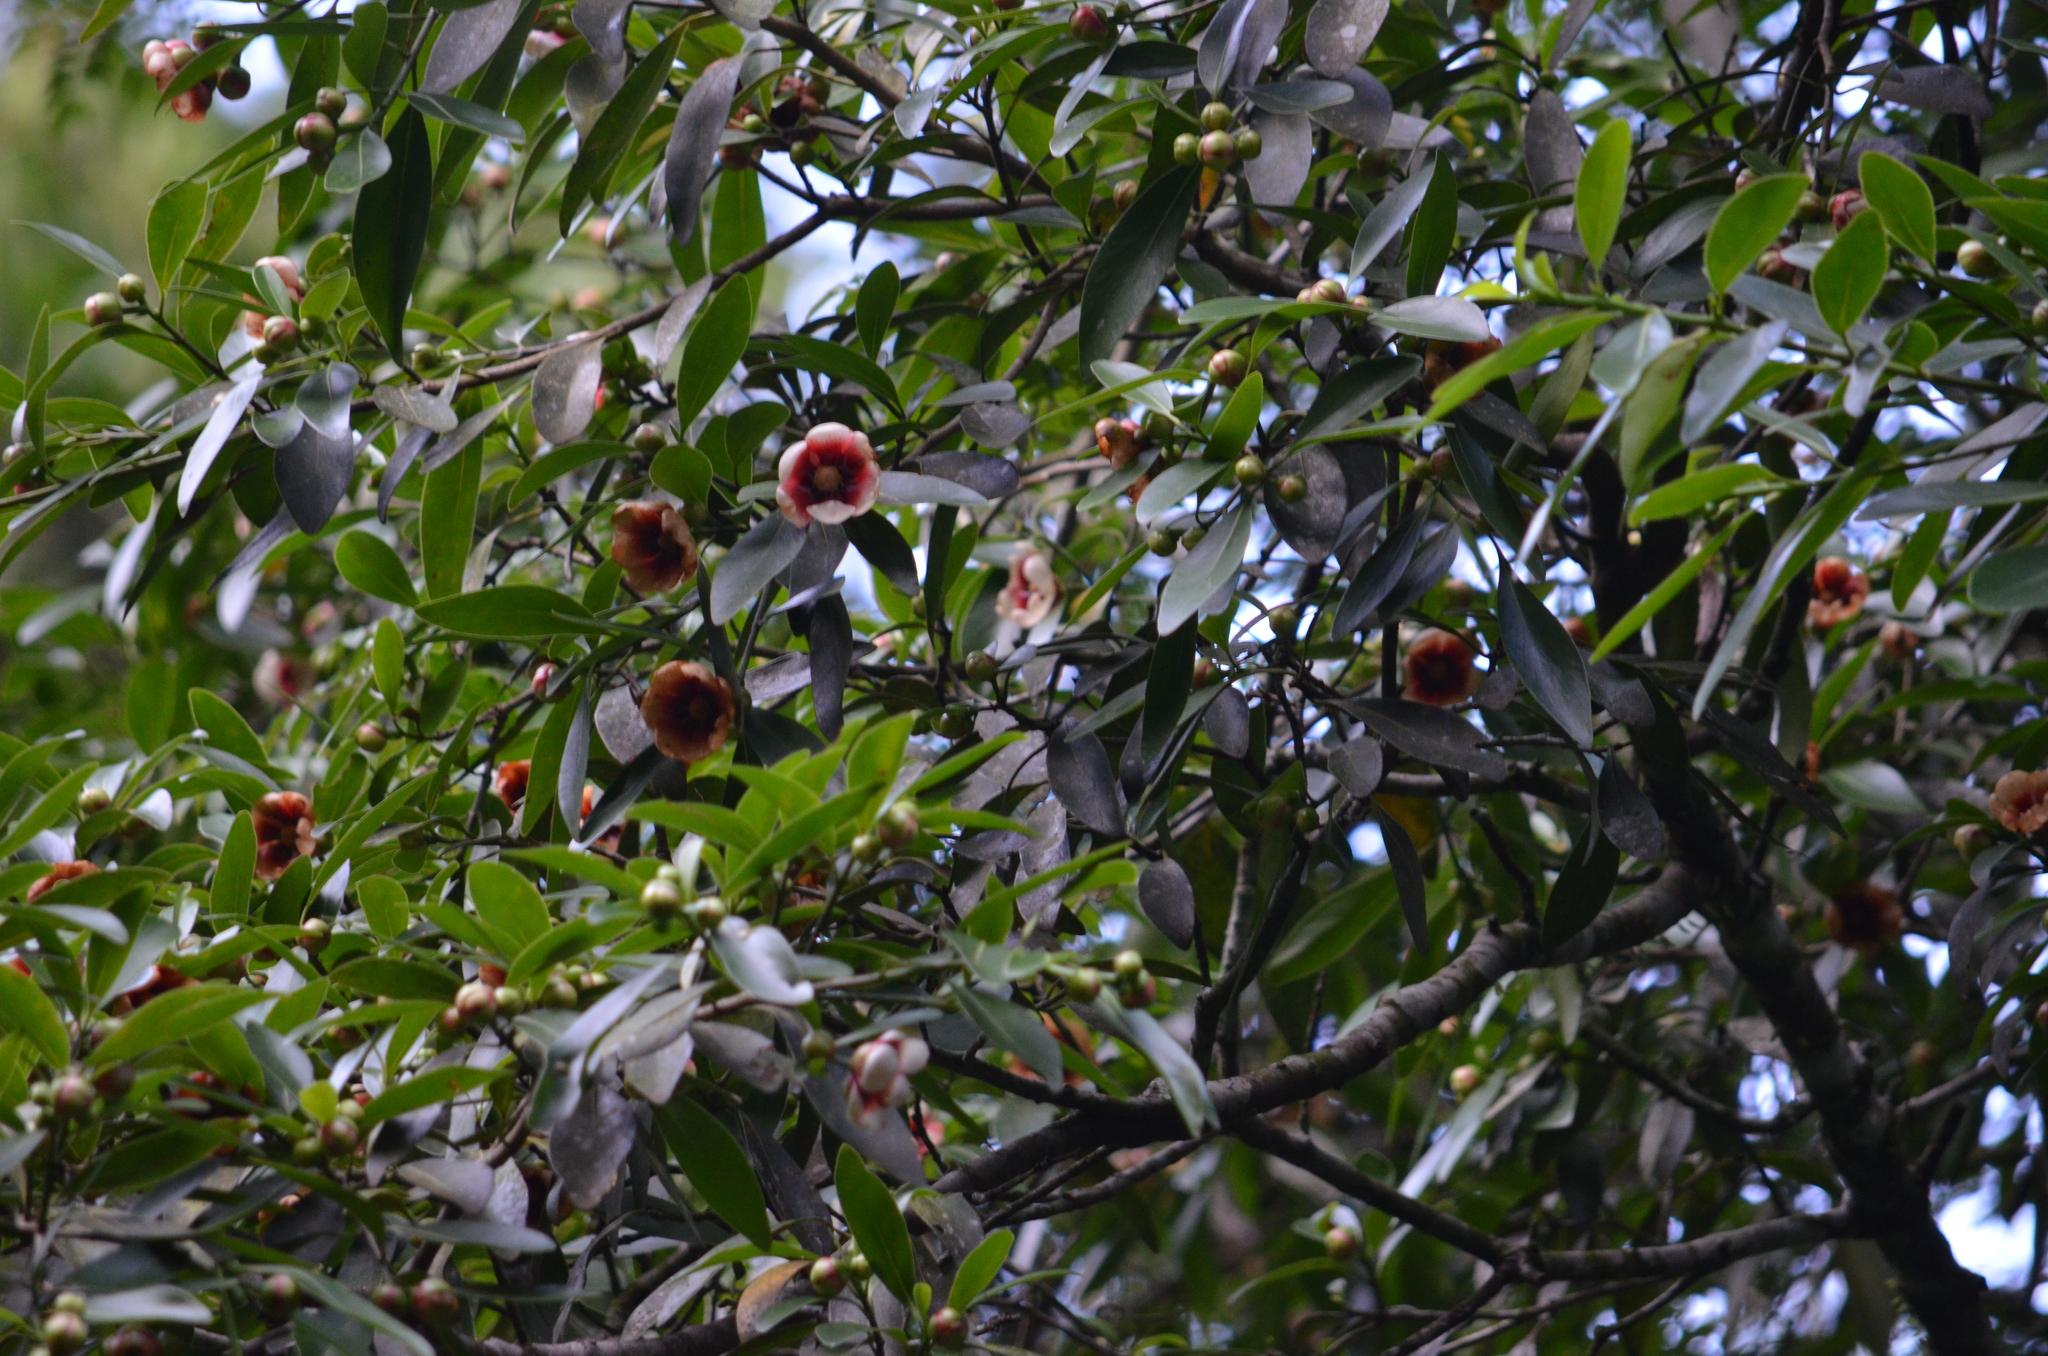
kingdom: Plantae
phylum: Tracheophyta
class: Magnoliopsida
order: Malpighiales
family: Clusiaceae
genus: Clusia
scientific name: Clusia lanceolata
